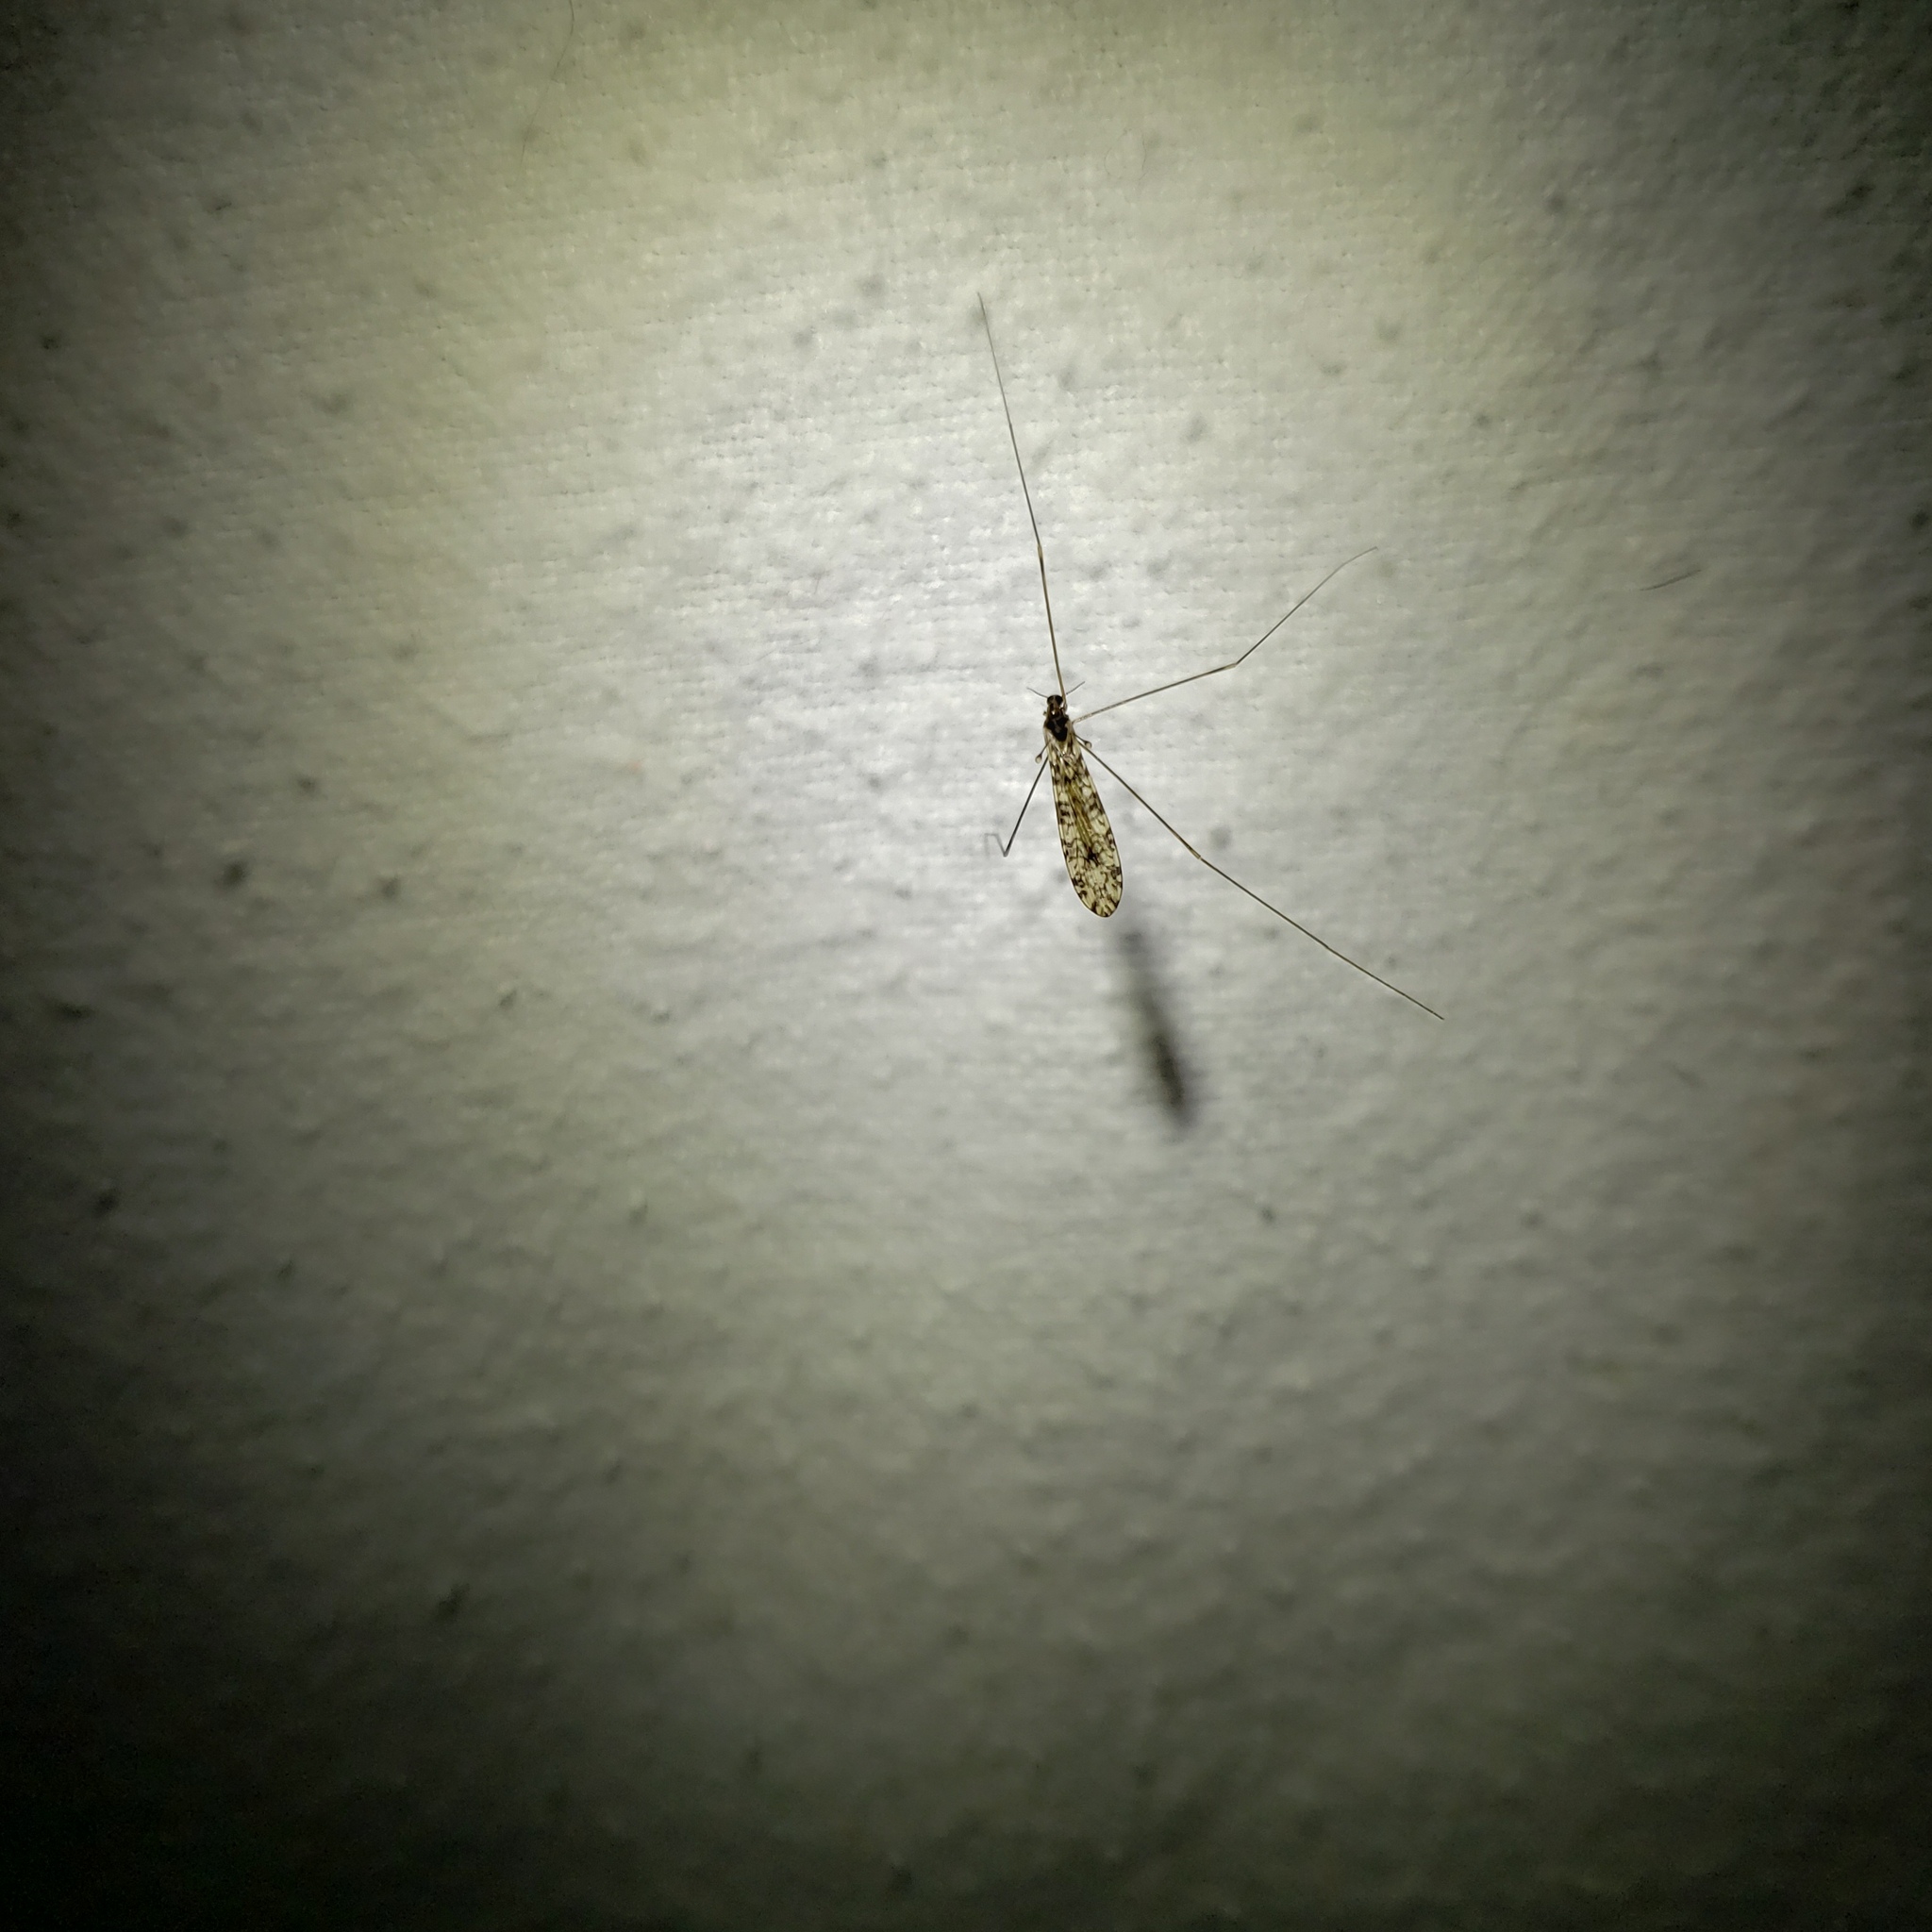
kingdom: Animalia
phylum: Arthropoda
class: Insecta
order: Diptera
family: Limoniidae
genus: Limonia
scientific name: Limonia annulata
